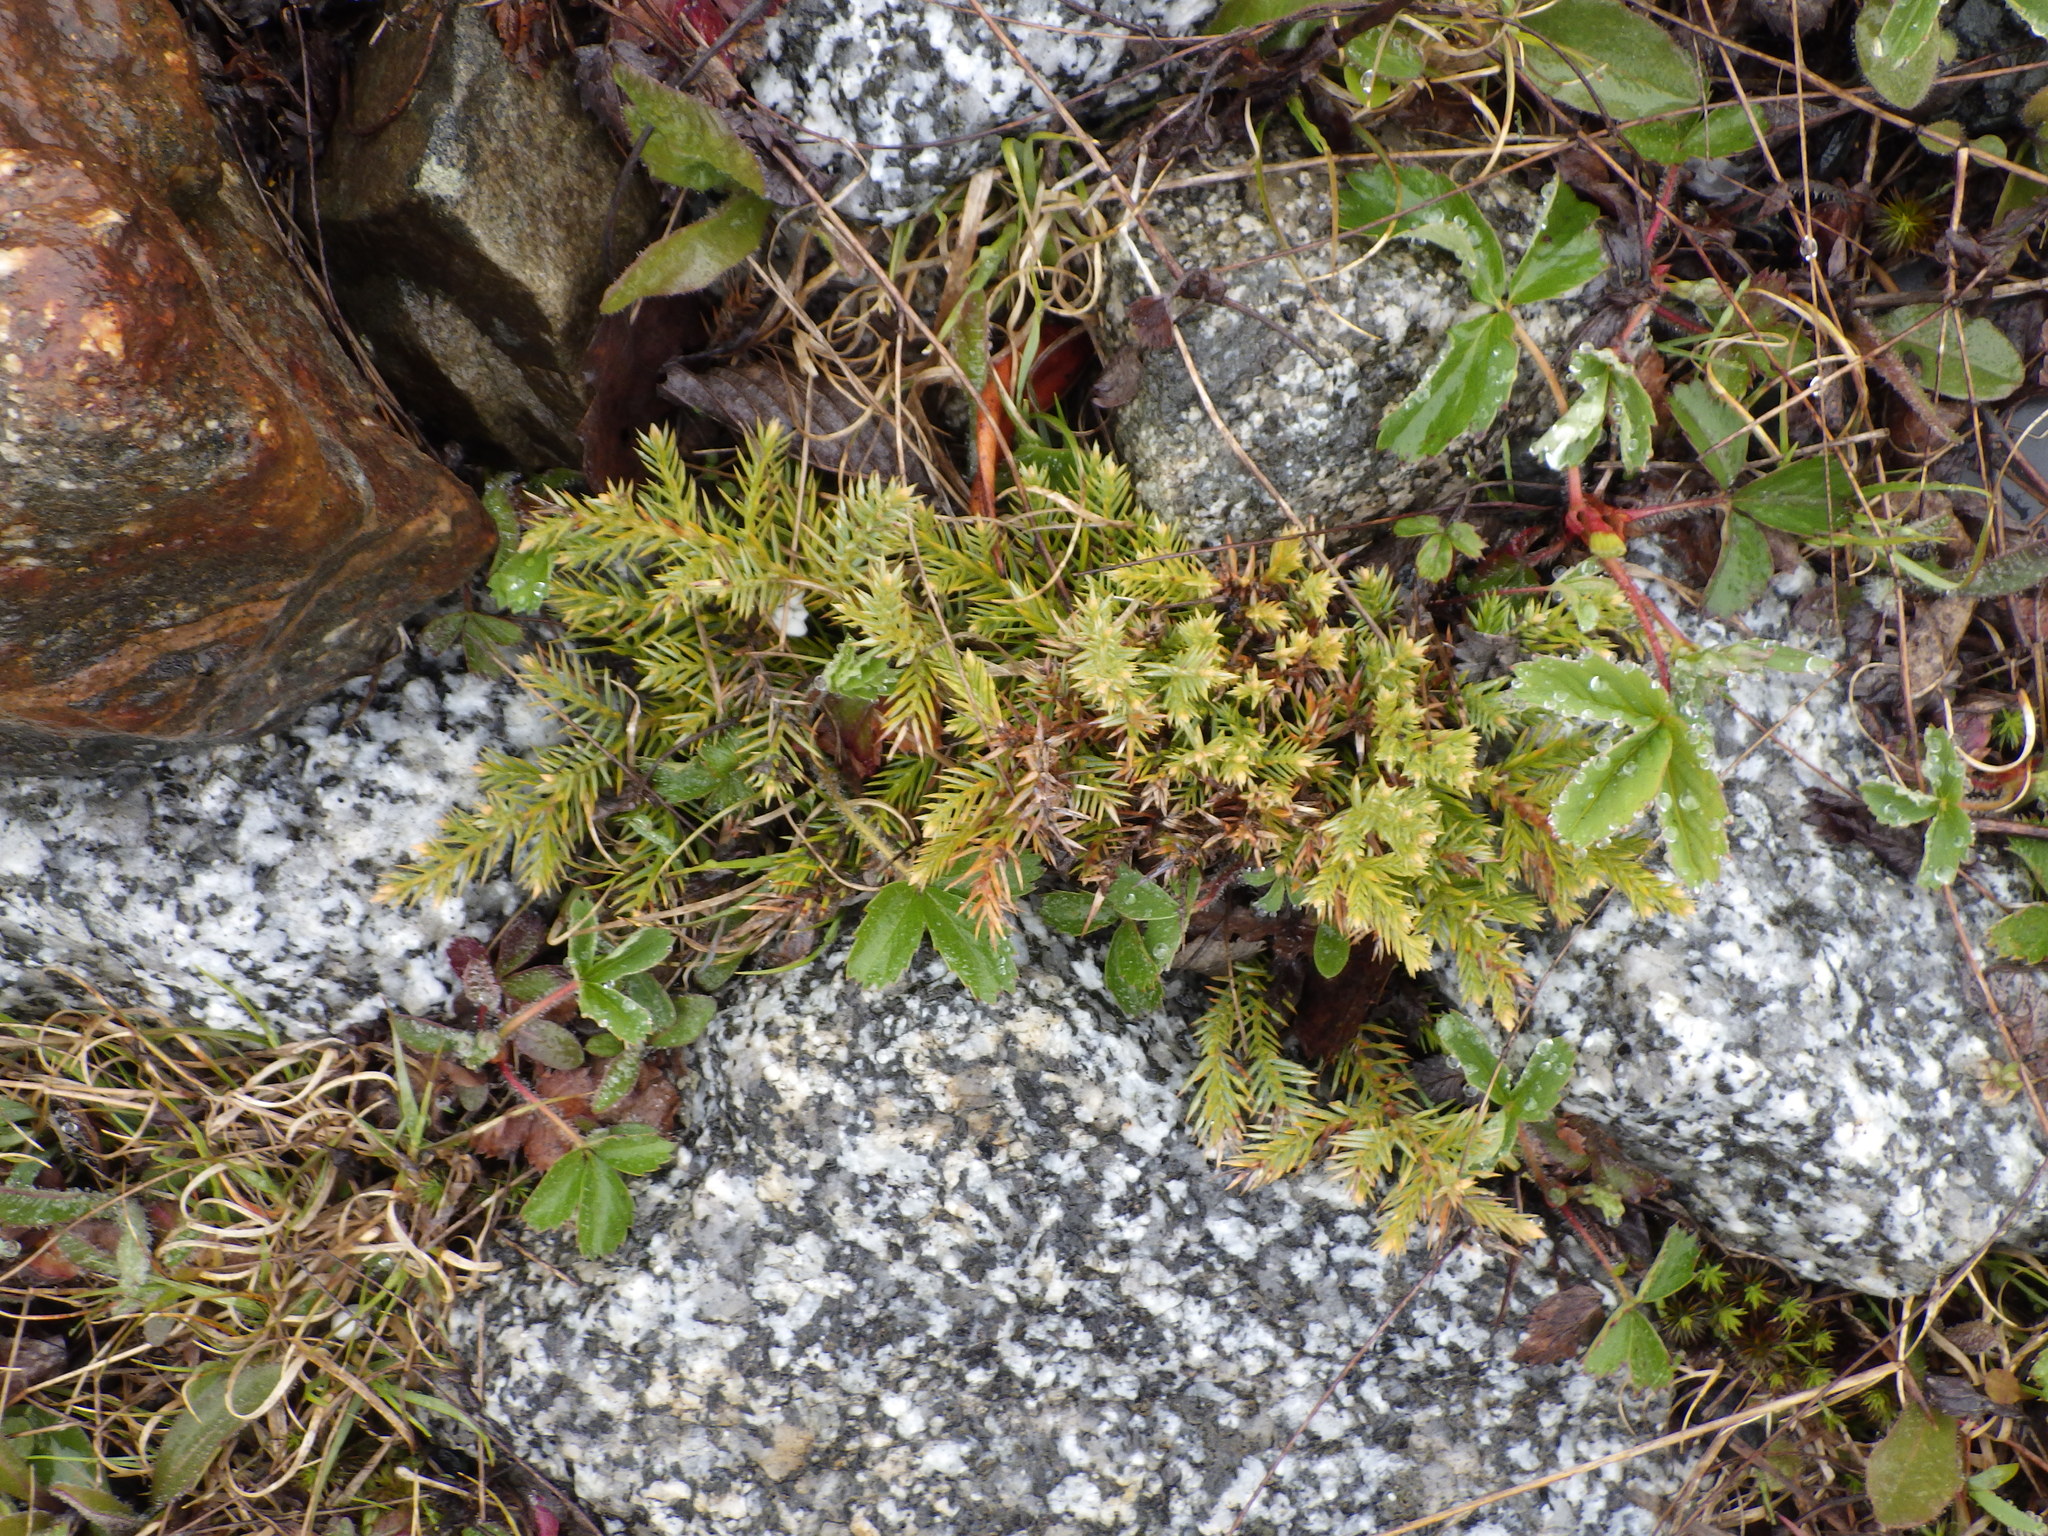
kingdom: Plantae
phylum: Tracheophyta
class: Pinopsida
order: Pinales
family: Cupressaceae
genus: Juniperus
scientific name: Juniperus communis
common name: Common juniper
